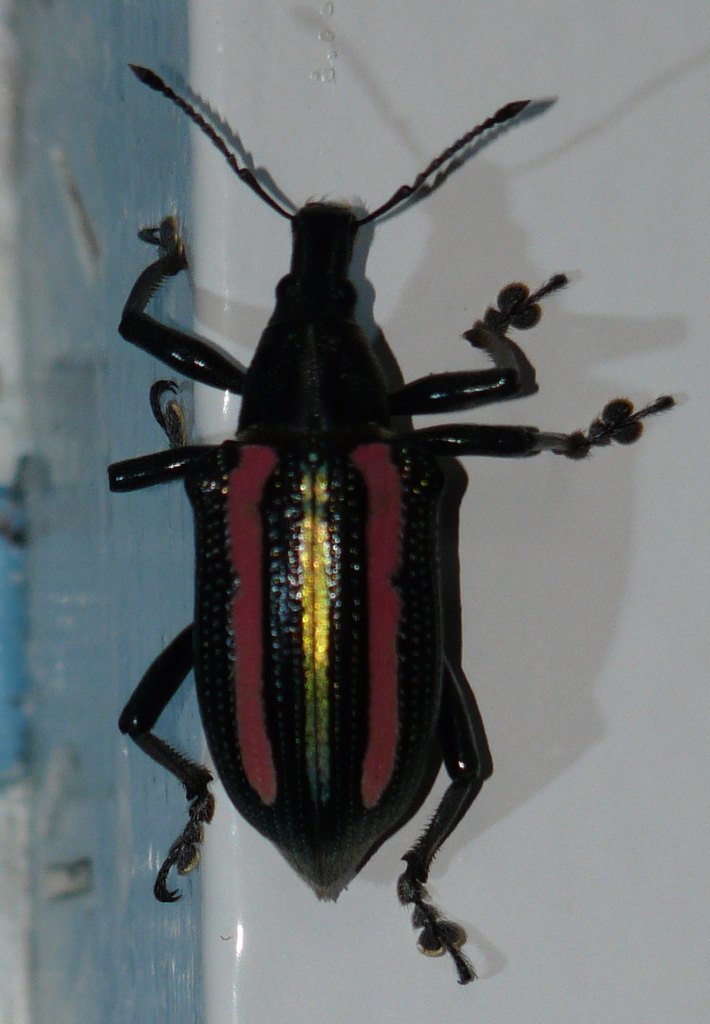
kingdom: Animalia
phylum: Arthropoda
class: Insecta
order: Coleoptera
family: Curculionidae
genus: Exophthalmus
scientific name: Exophthalmus similis
